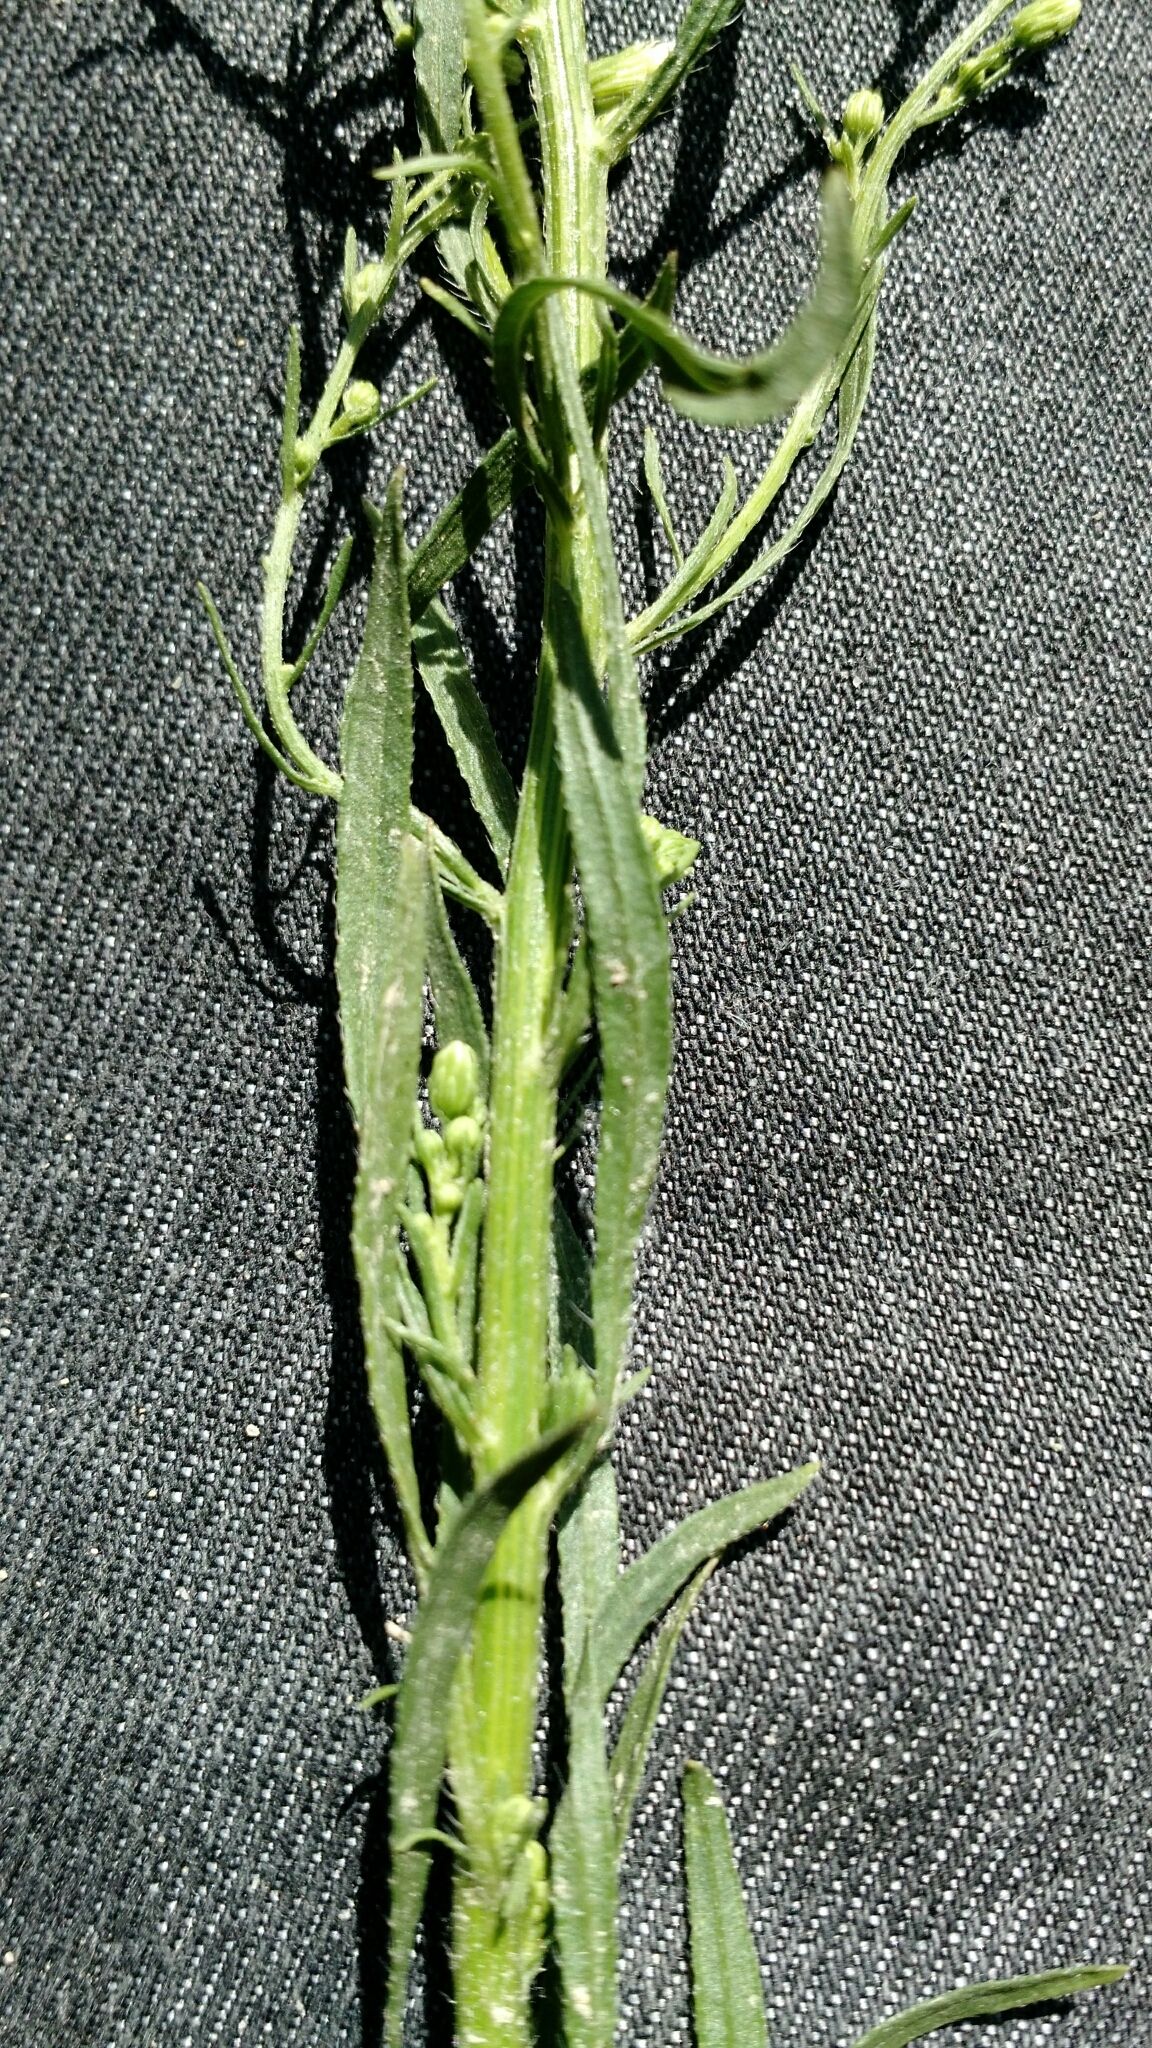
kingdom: Plantae
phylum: Tracheophyta
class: Magnoliopsida
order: Asterales
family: Asteraceae
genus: Erigeron
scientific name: Erigeron canadensis
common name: Canadian fleabane
